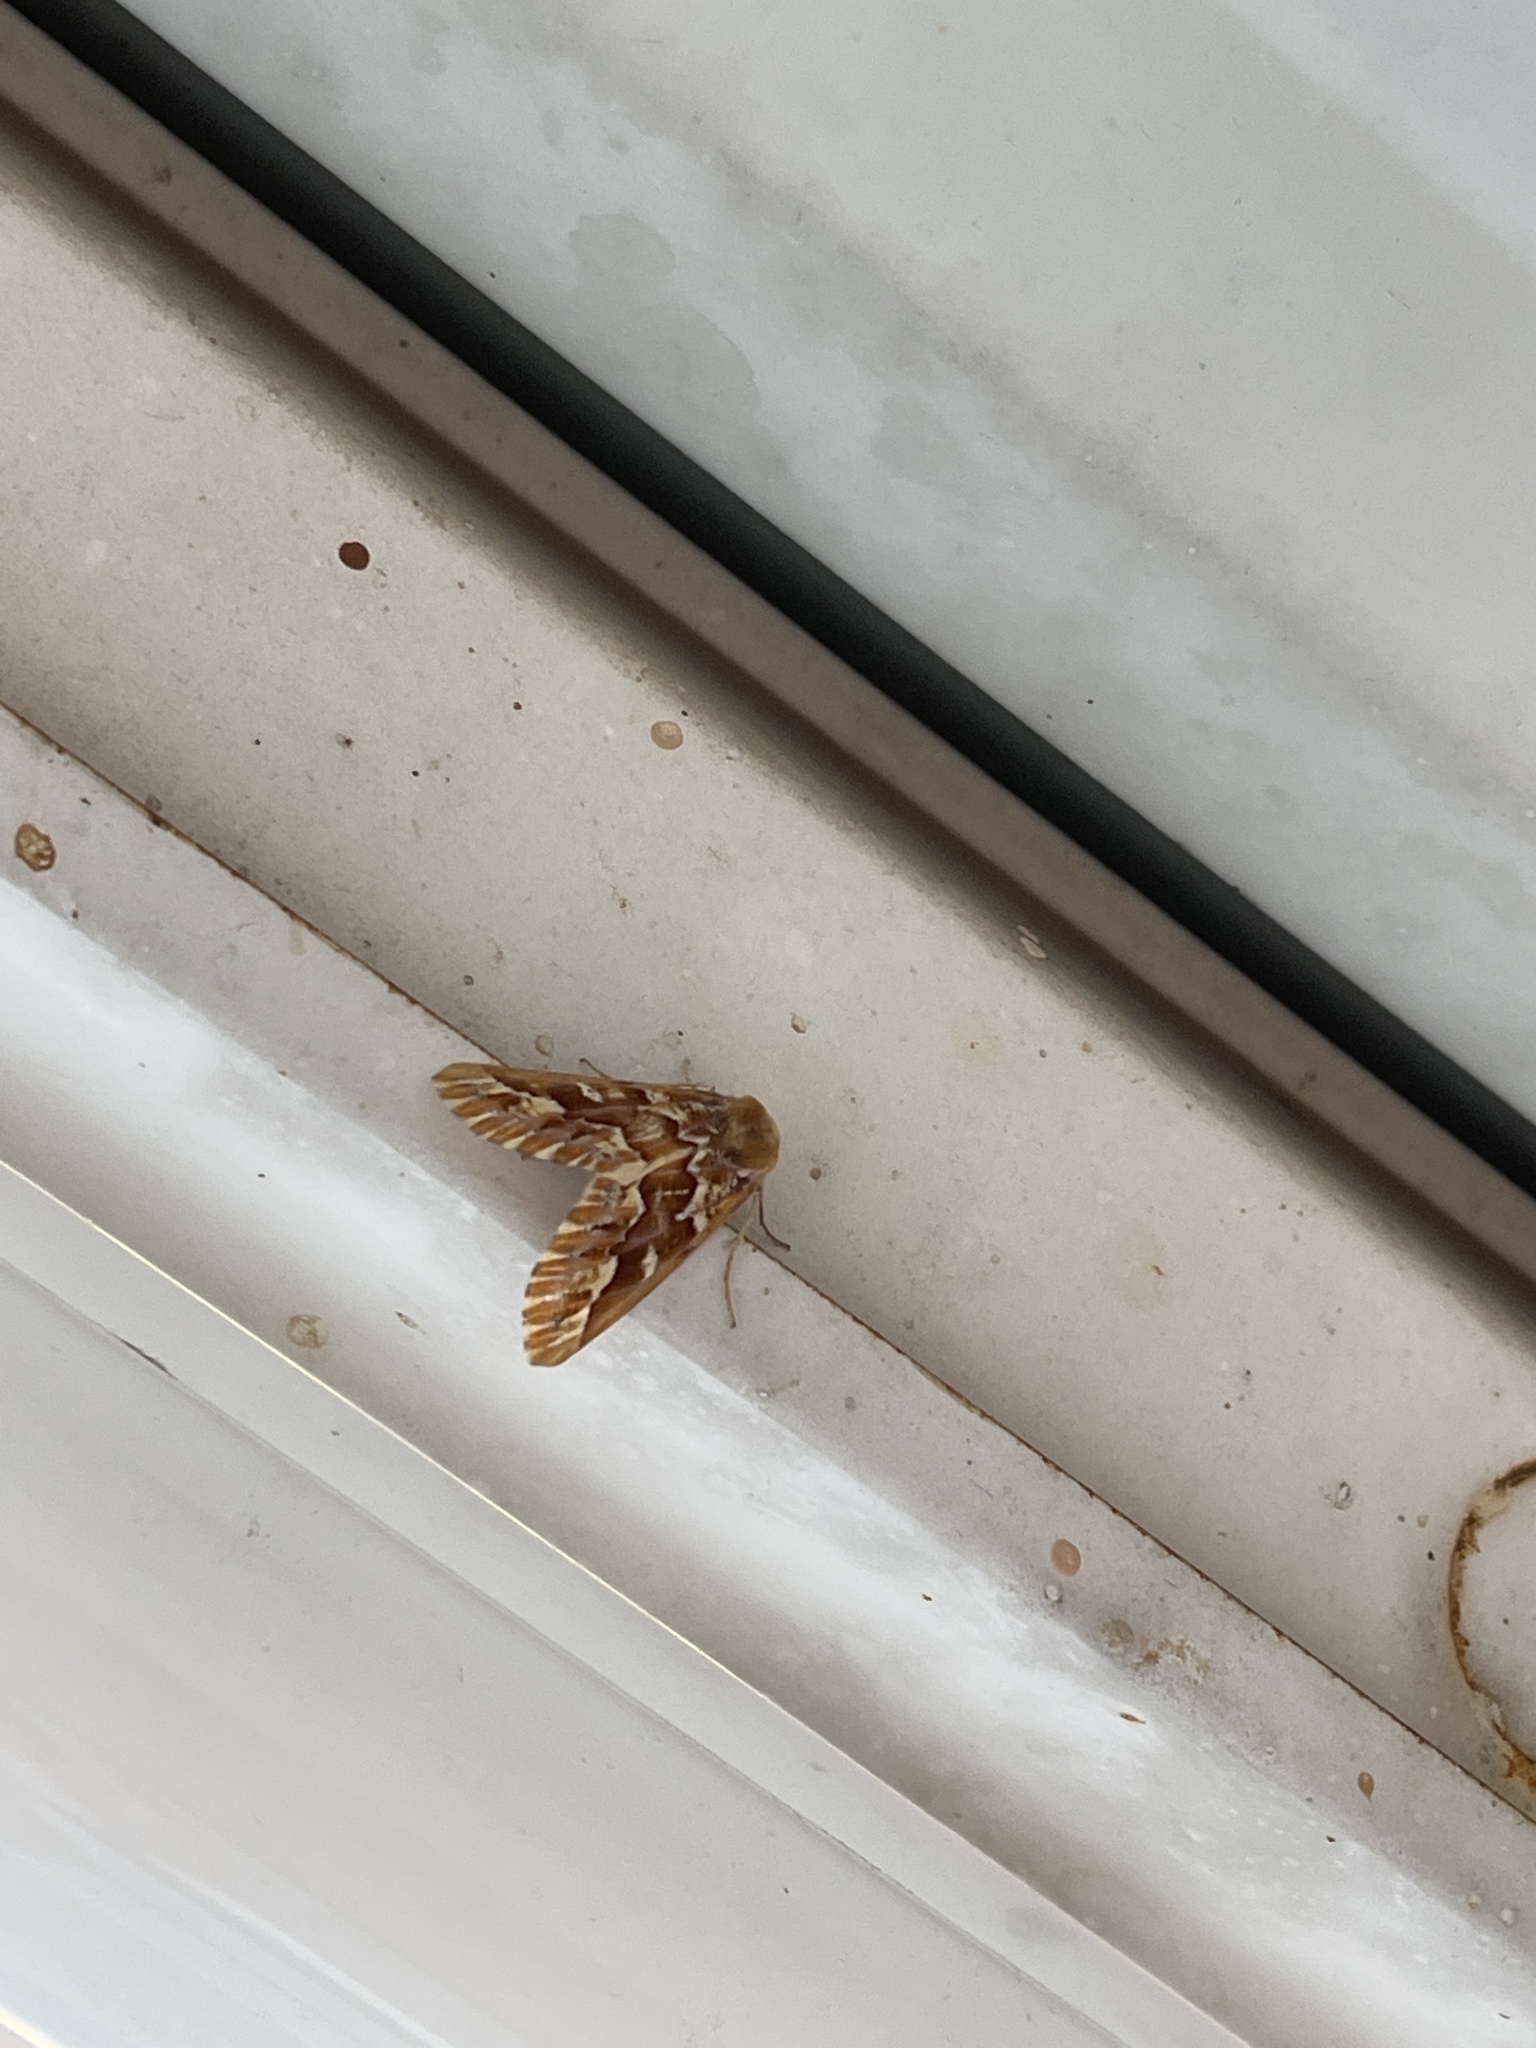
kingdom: Animalia
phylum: Arthropoda
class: Insecta
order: Lepidoptera
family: Geometridae
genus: Caripeta
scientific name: Caripeta aequaliaria
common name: Red girdle moth
